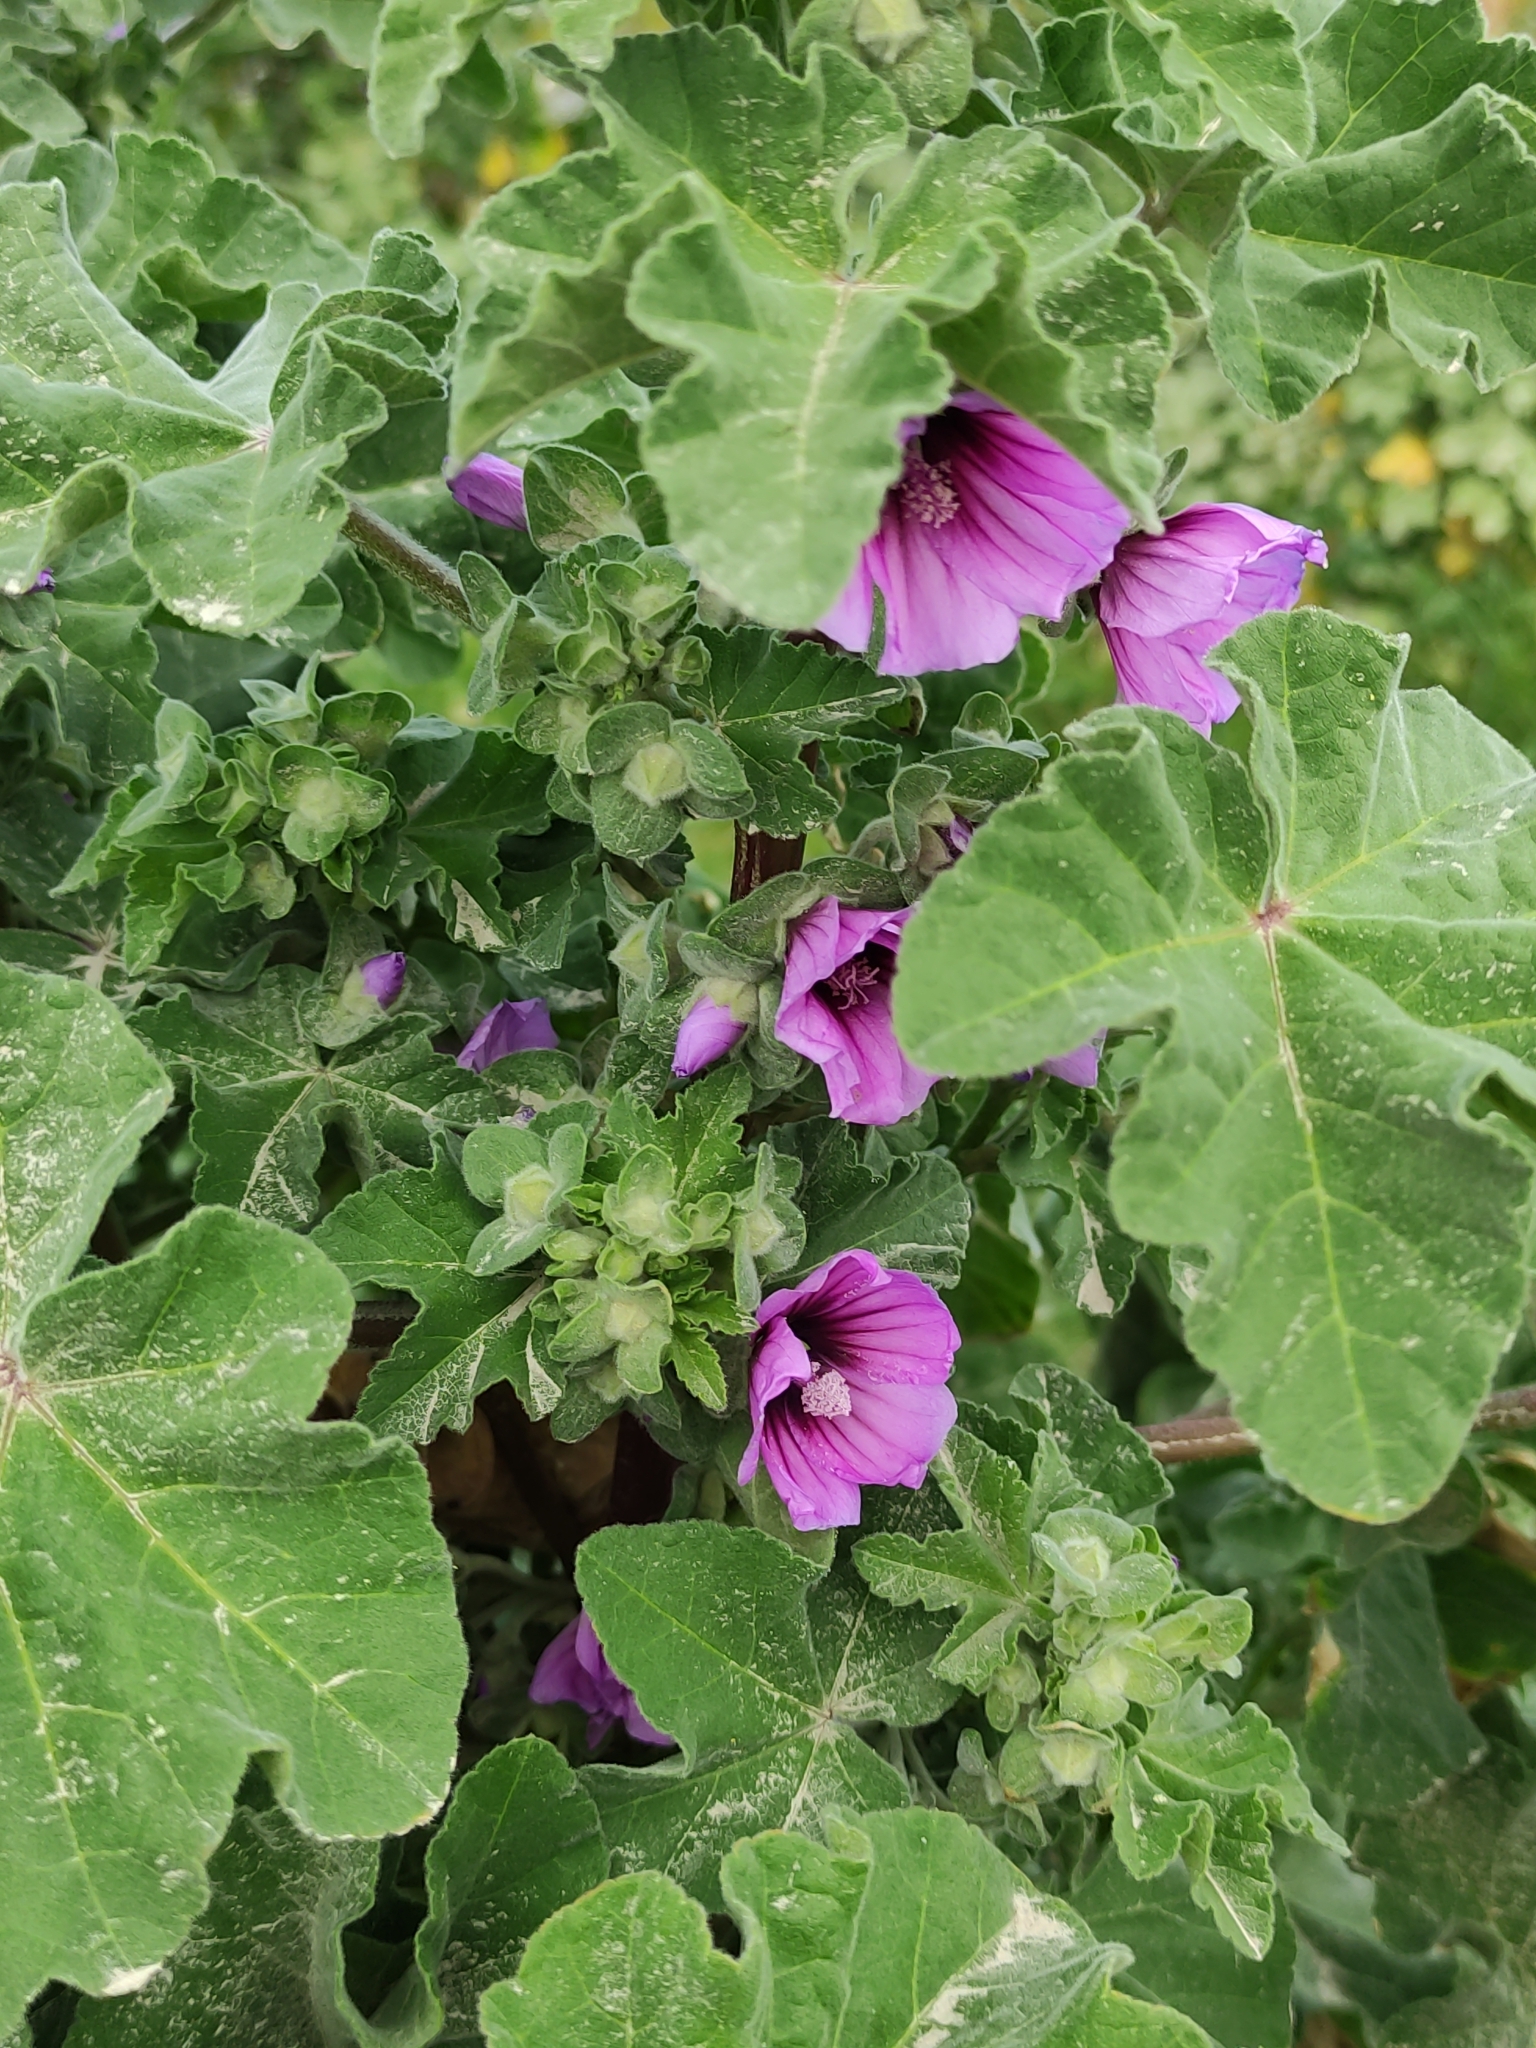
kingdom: Plantae
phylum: Tracheophyta
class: Magnoliopsida
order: Malvales
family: Malvaceae
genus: Malva
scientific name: Malva arborea
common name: Tree mallow
